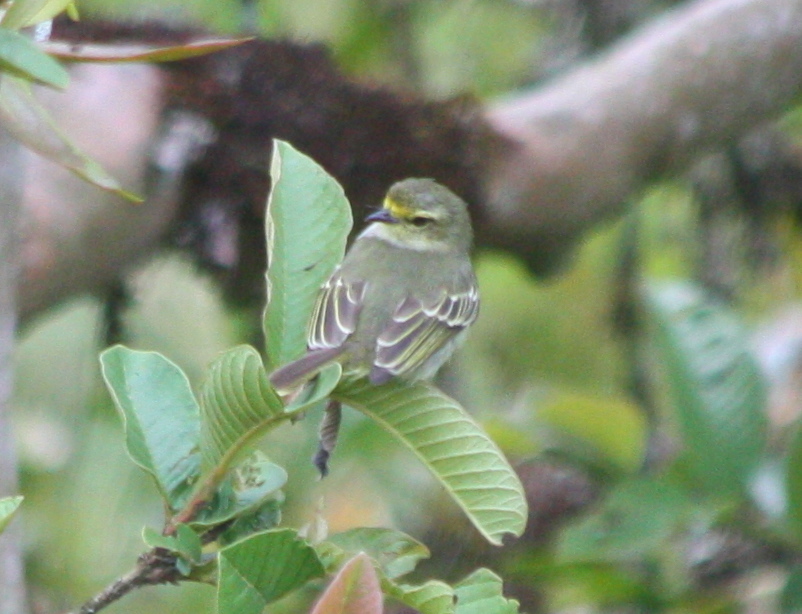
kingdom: Animalia
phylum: Chordata
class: Aves
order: Passeriformes
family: Tyrannidae
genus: Zimmerius
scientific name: Zimmerius chrysops
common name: Golden-faced tyrannulet
